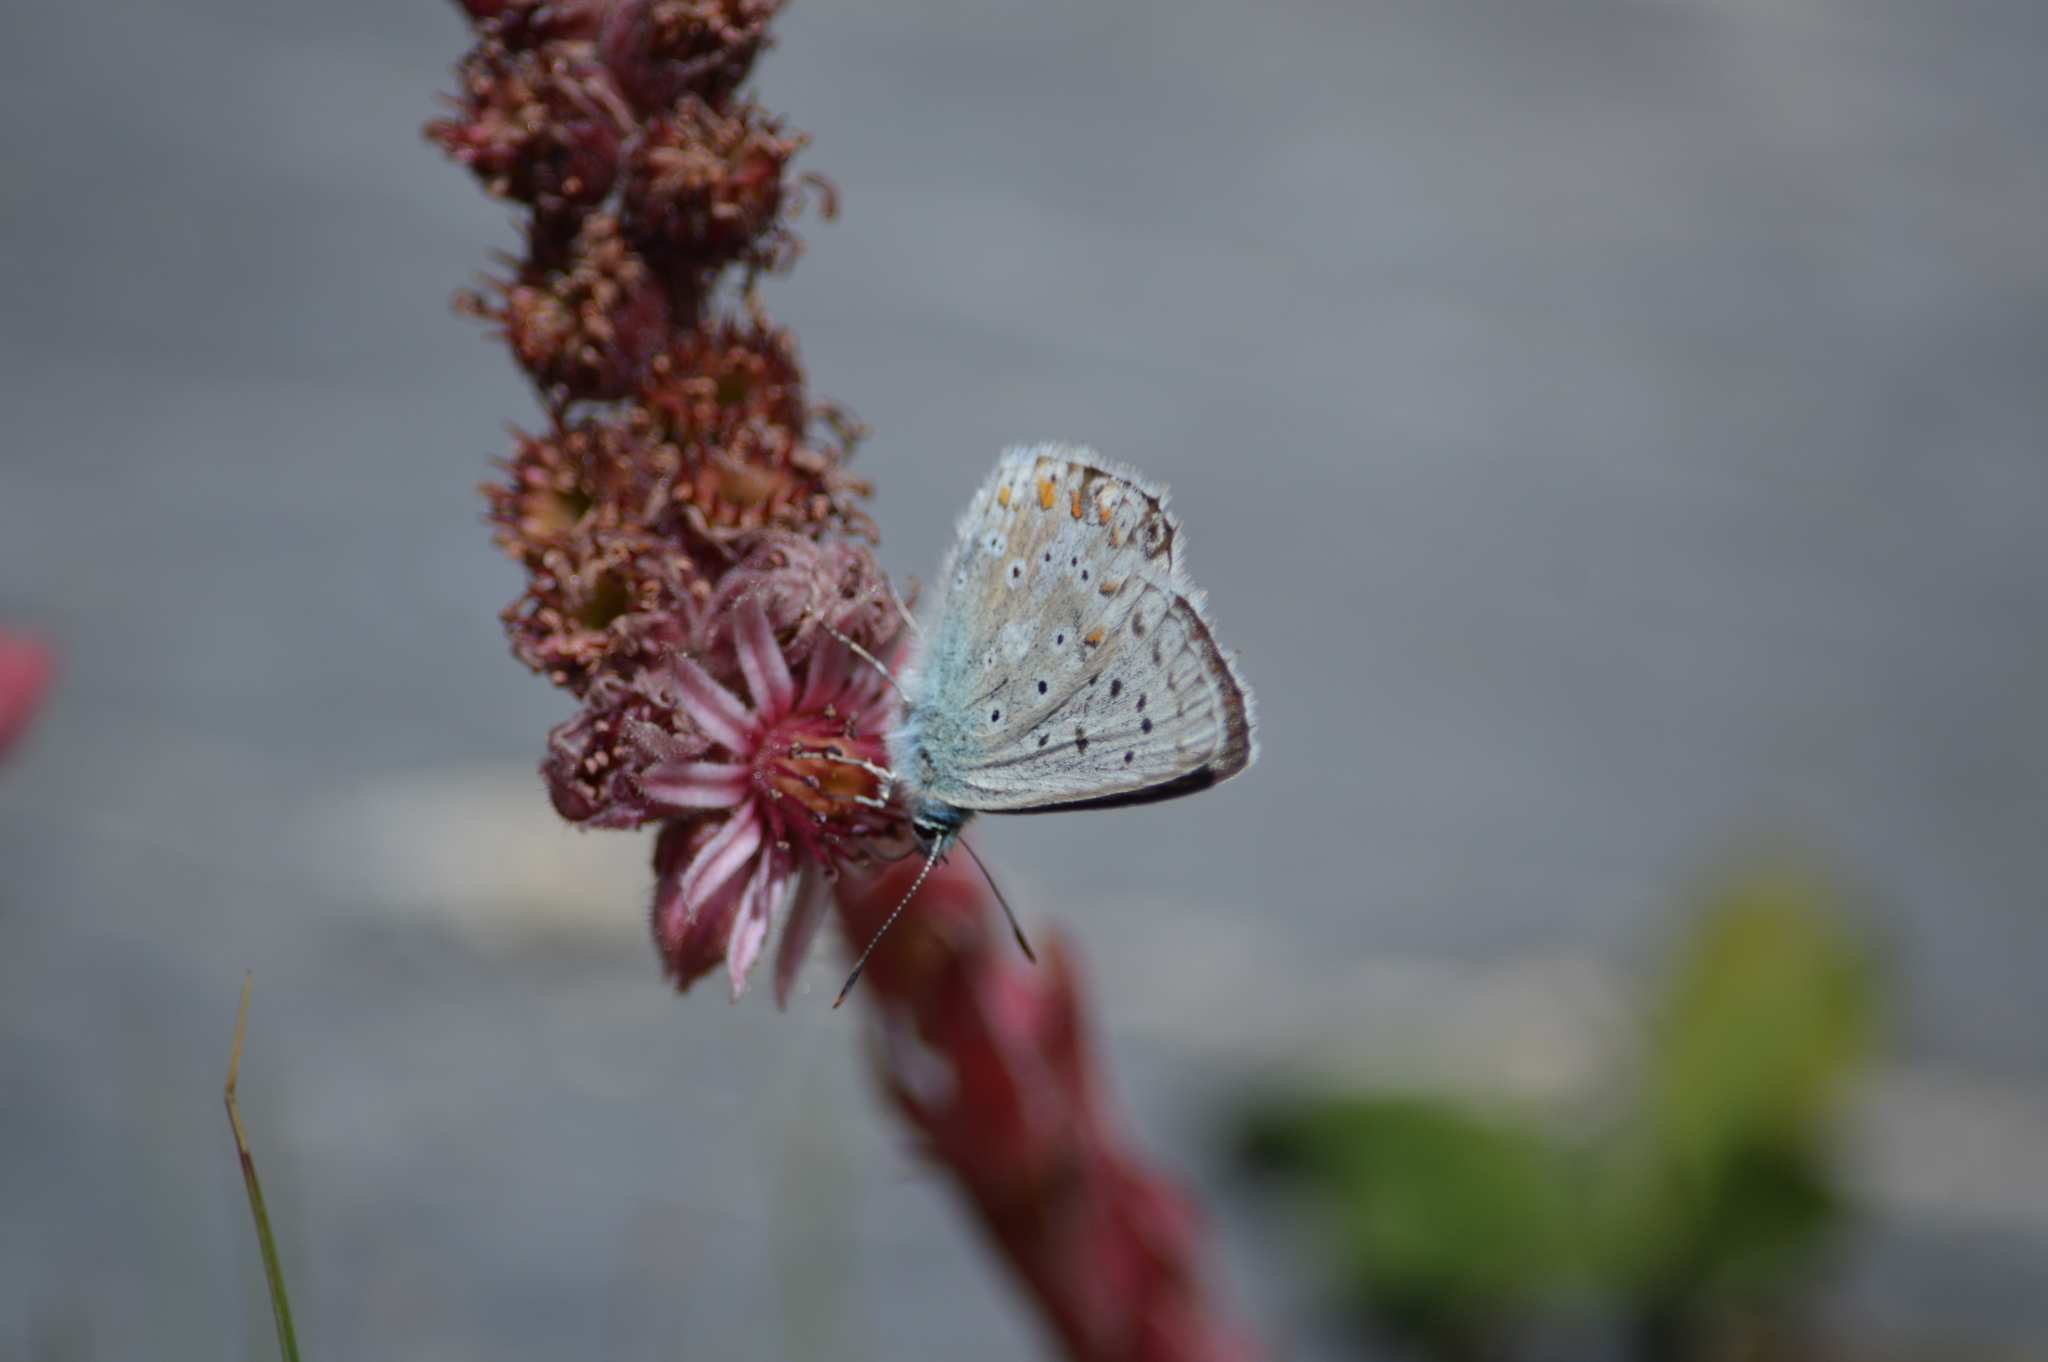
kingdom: Animalia
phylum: Arthropoda
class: Insecta
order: Lepidoptera
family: Lycaenidae
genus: Lysandra
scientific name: Lysandra coridon
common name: Chalkhill blue
